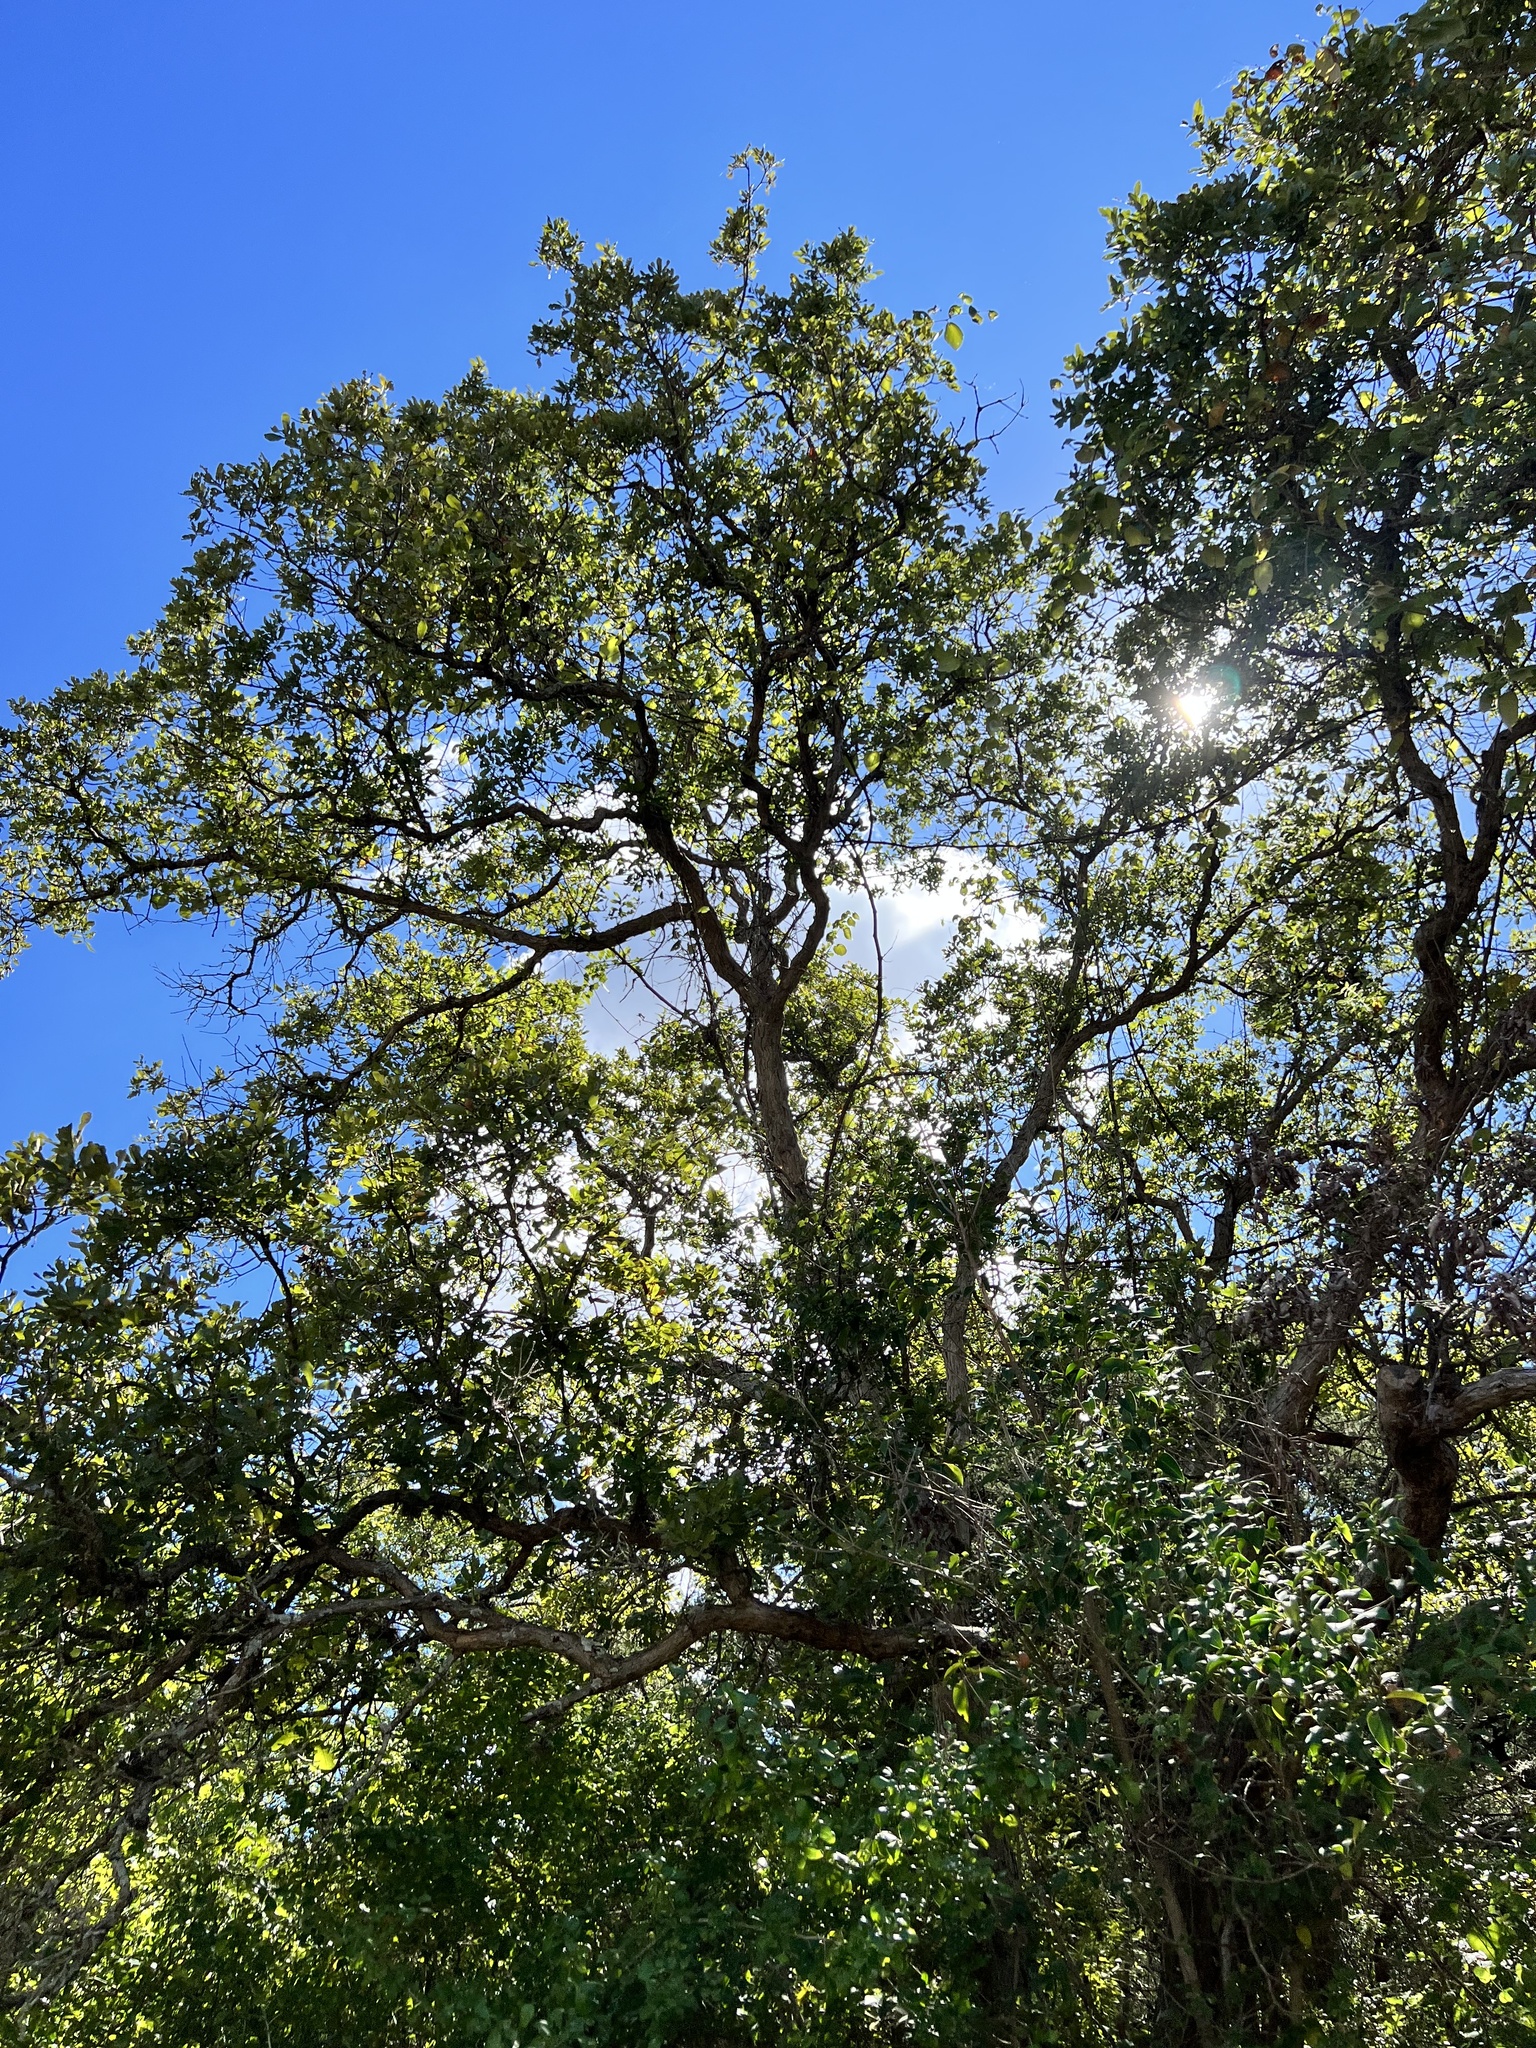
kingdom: Plantae
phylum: Tracheophyta
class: Magnoliopsida
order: Fagales
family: Fagaceae
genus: Quercus
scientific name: Quercus sinuata
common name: Durand oak
